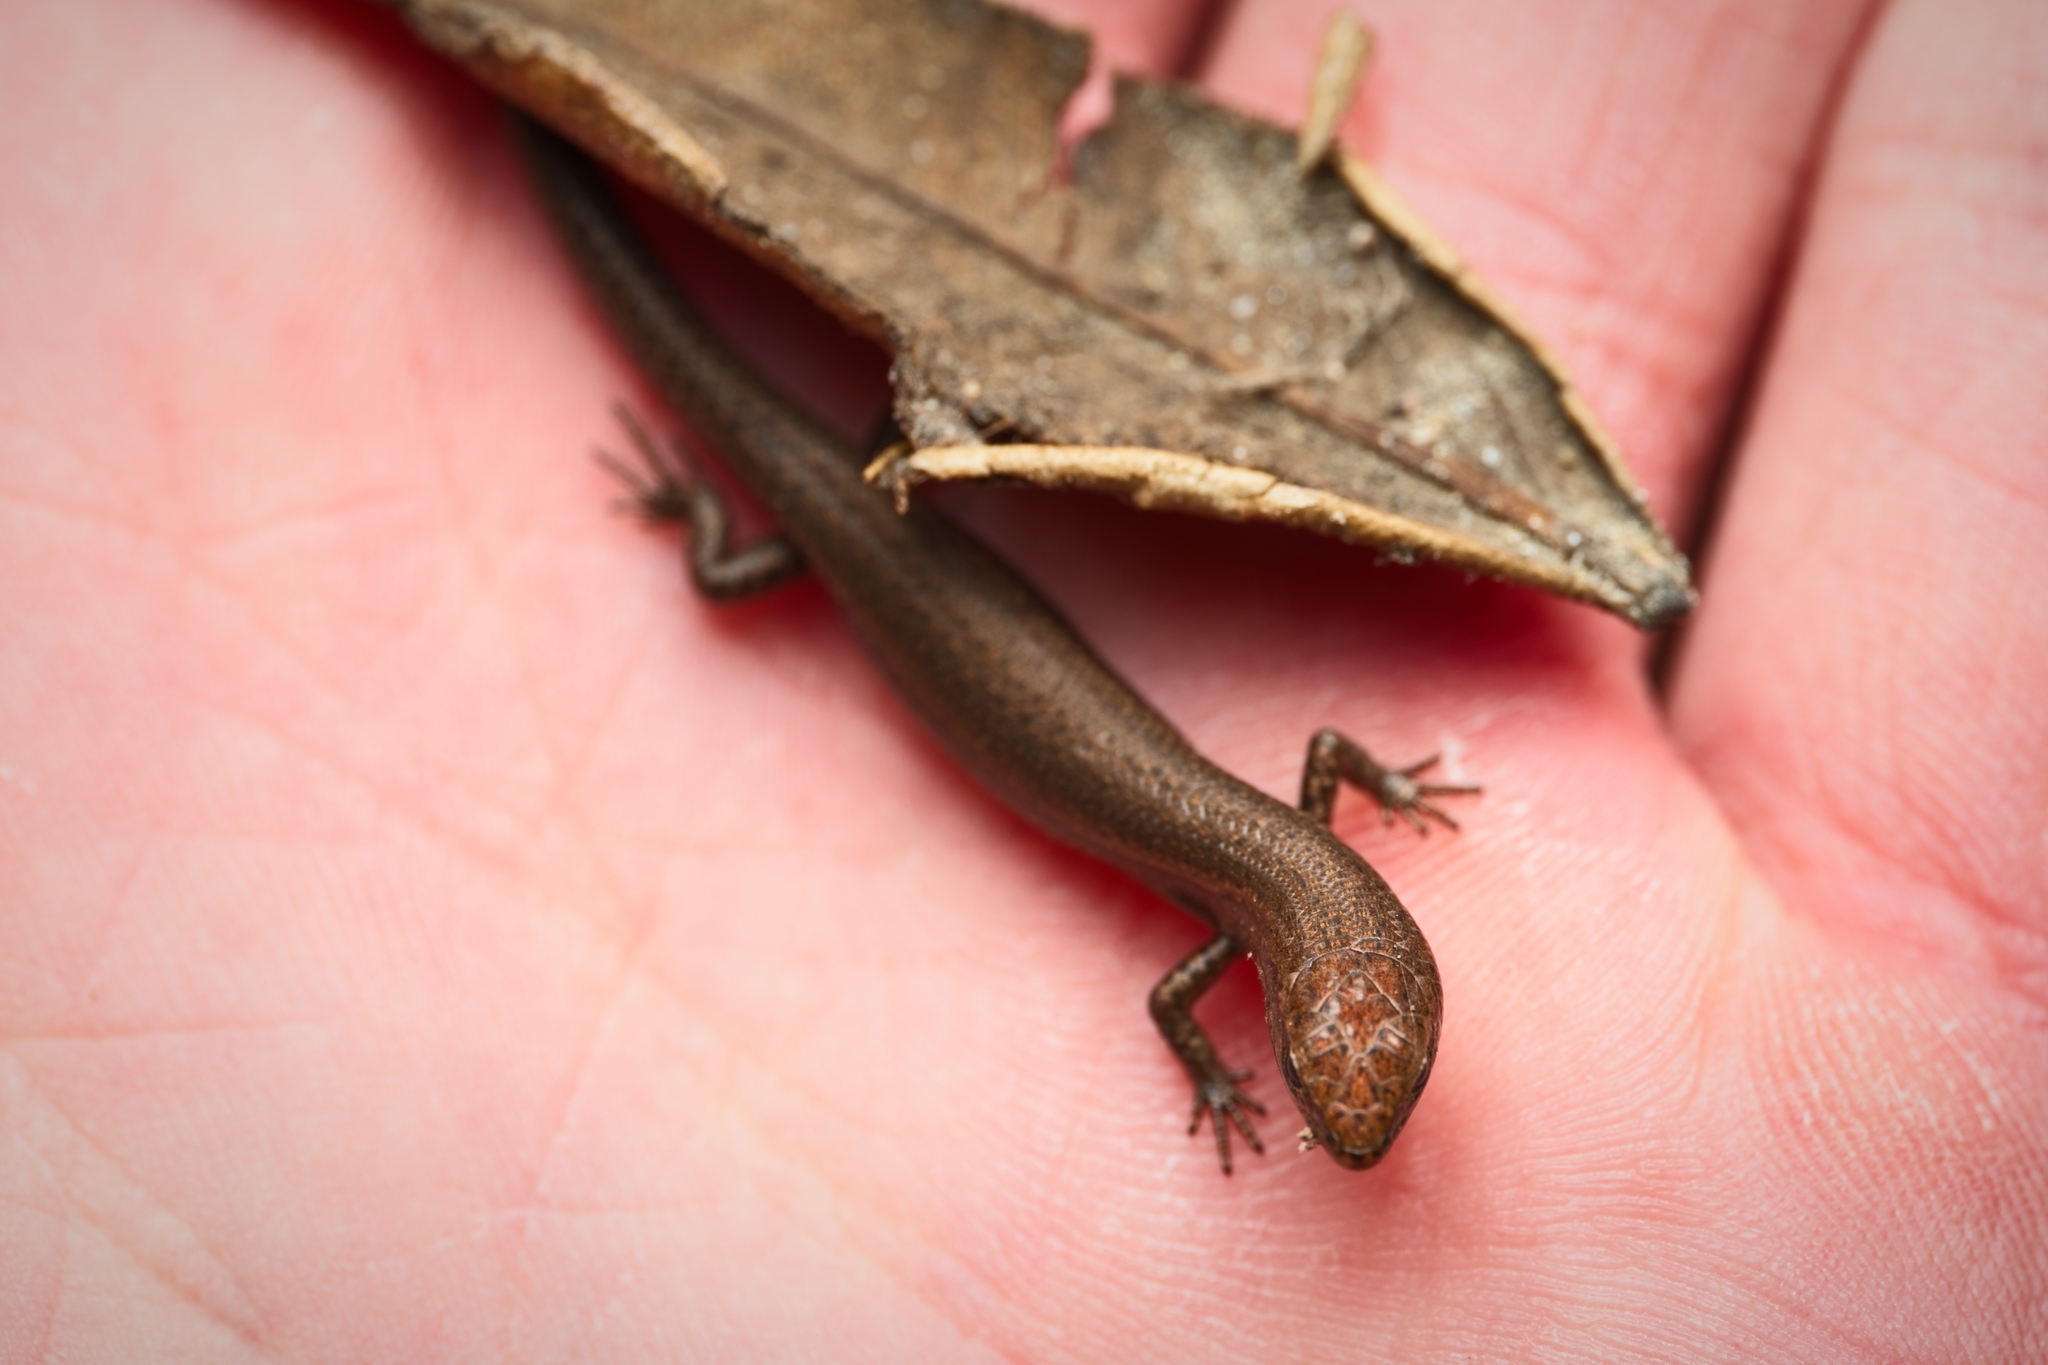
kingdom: Animalia
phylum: Chordata
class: Squamata
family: Scincidae
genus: Lampropholis
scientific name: Lampropholis delicata
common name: Plague skink
